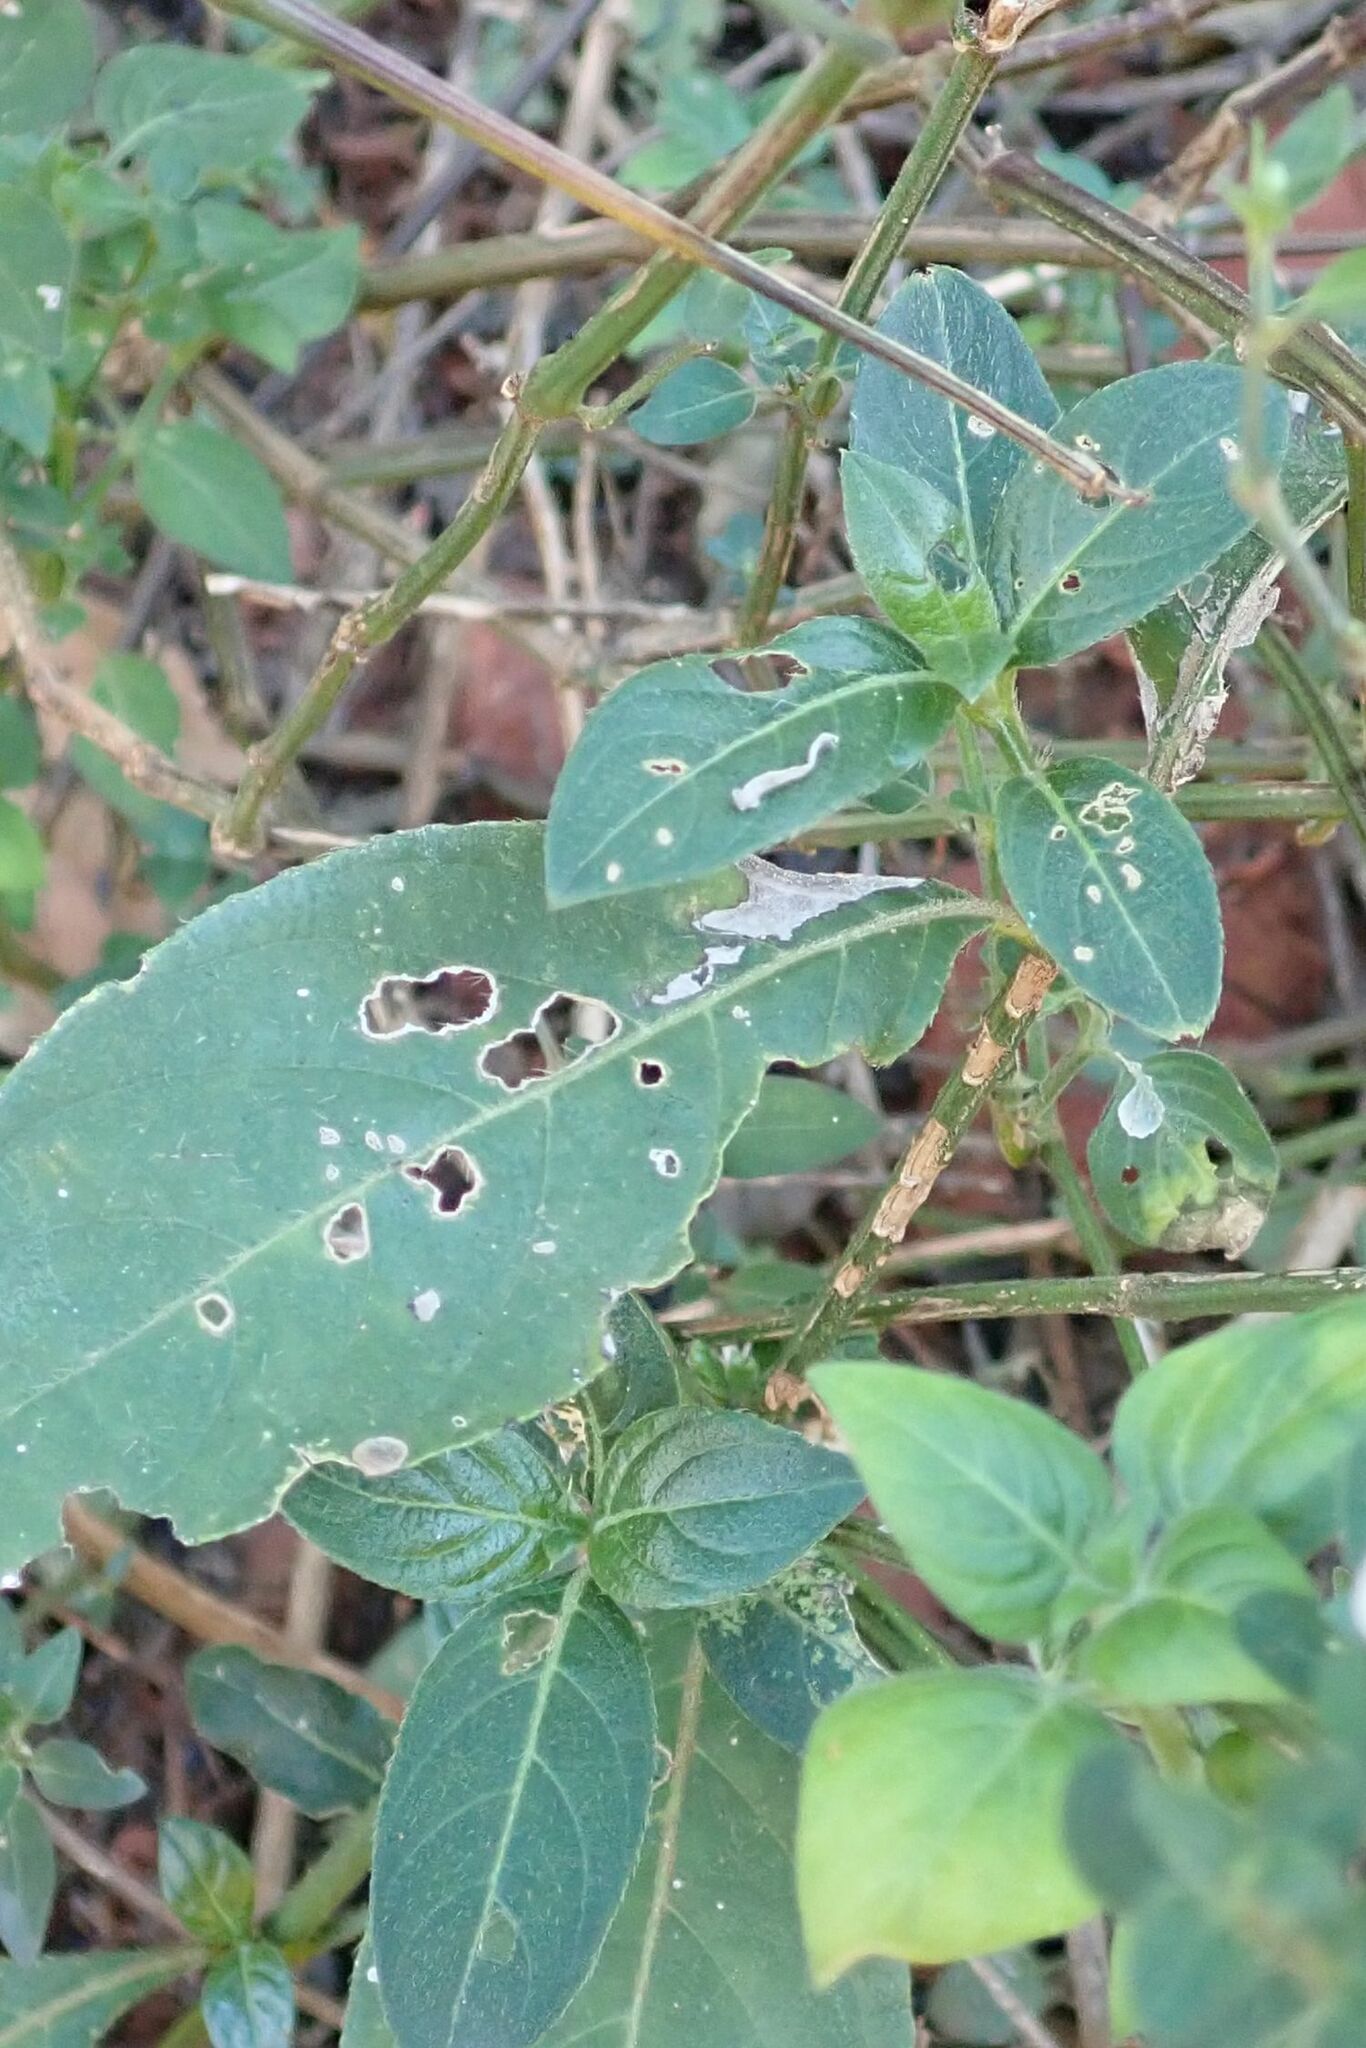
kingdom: Plantae
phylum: Tracheophyta
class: Magnoliopsida
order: Lamiales
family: Acanthaceae
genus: Justicia
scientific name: Justicia protracta
